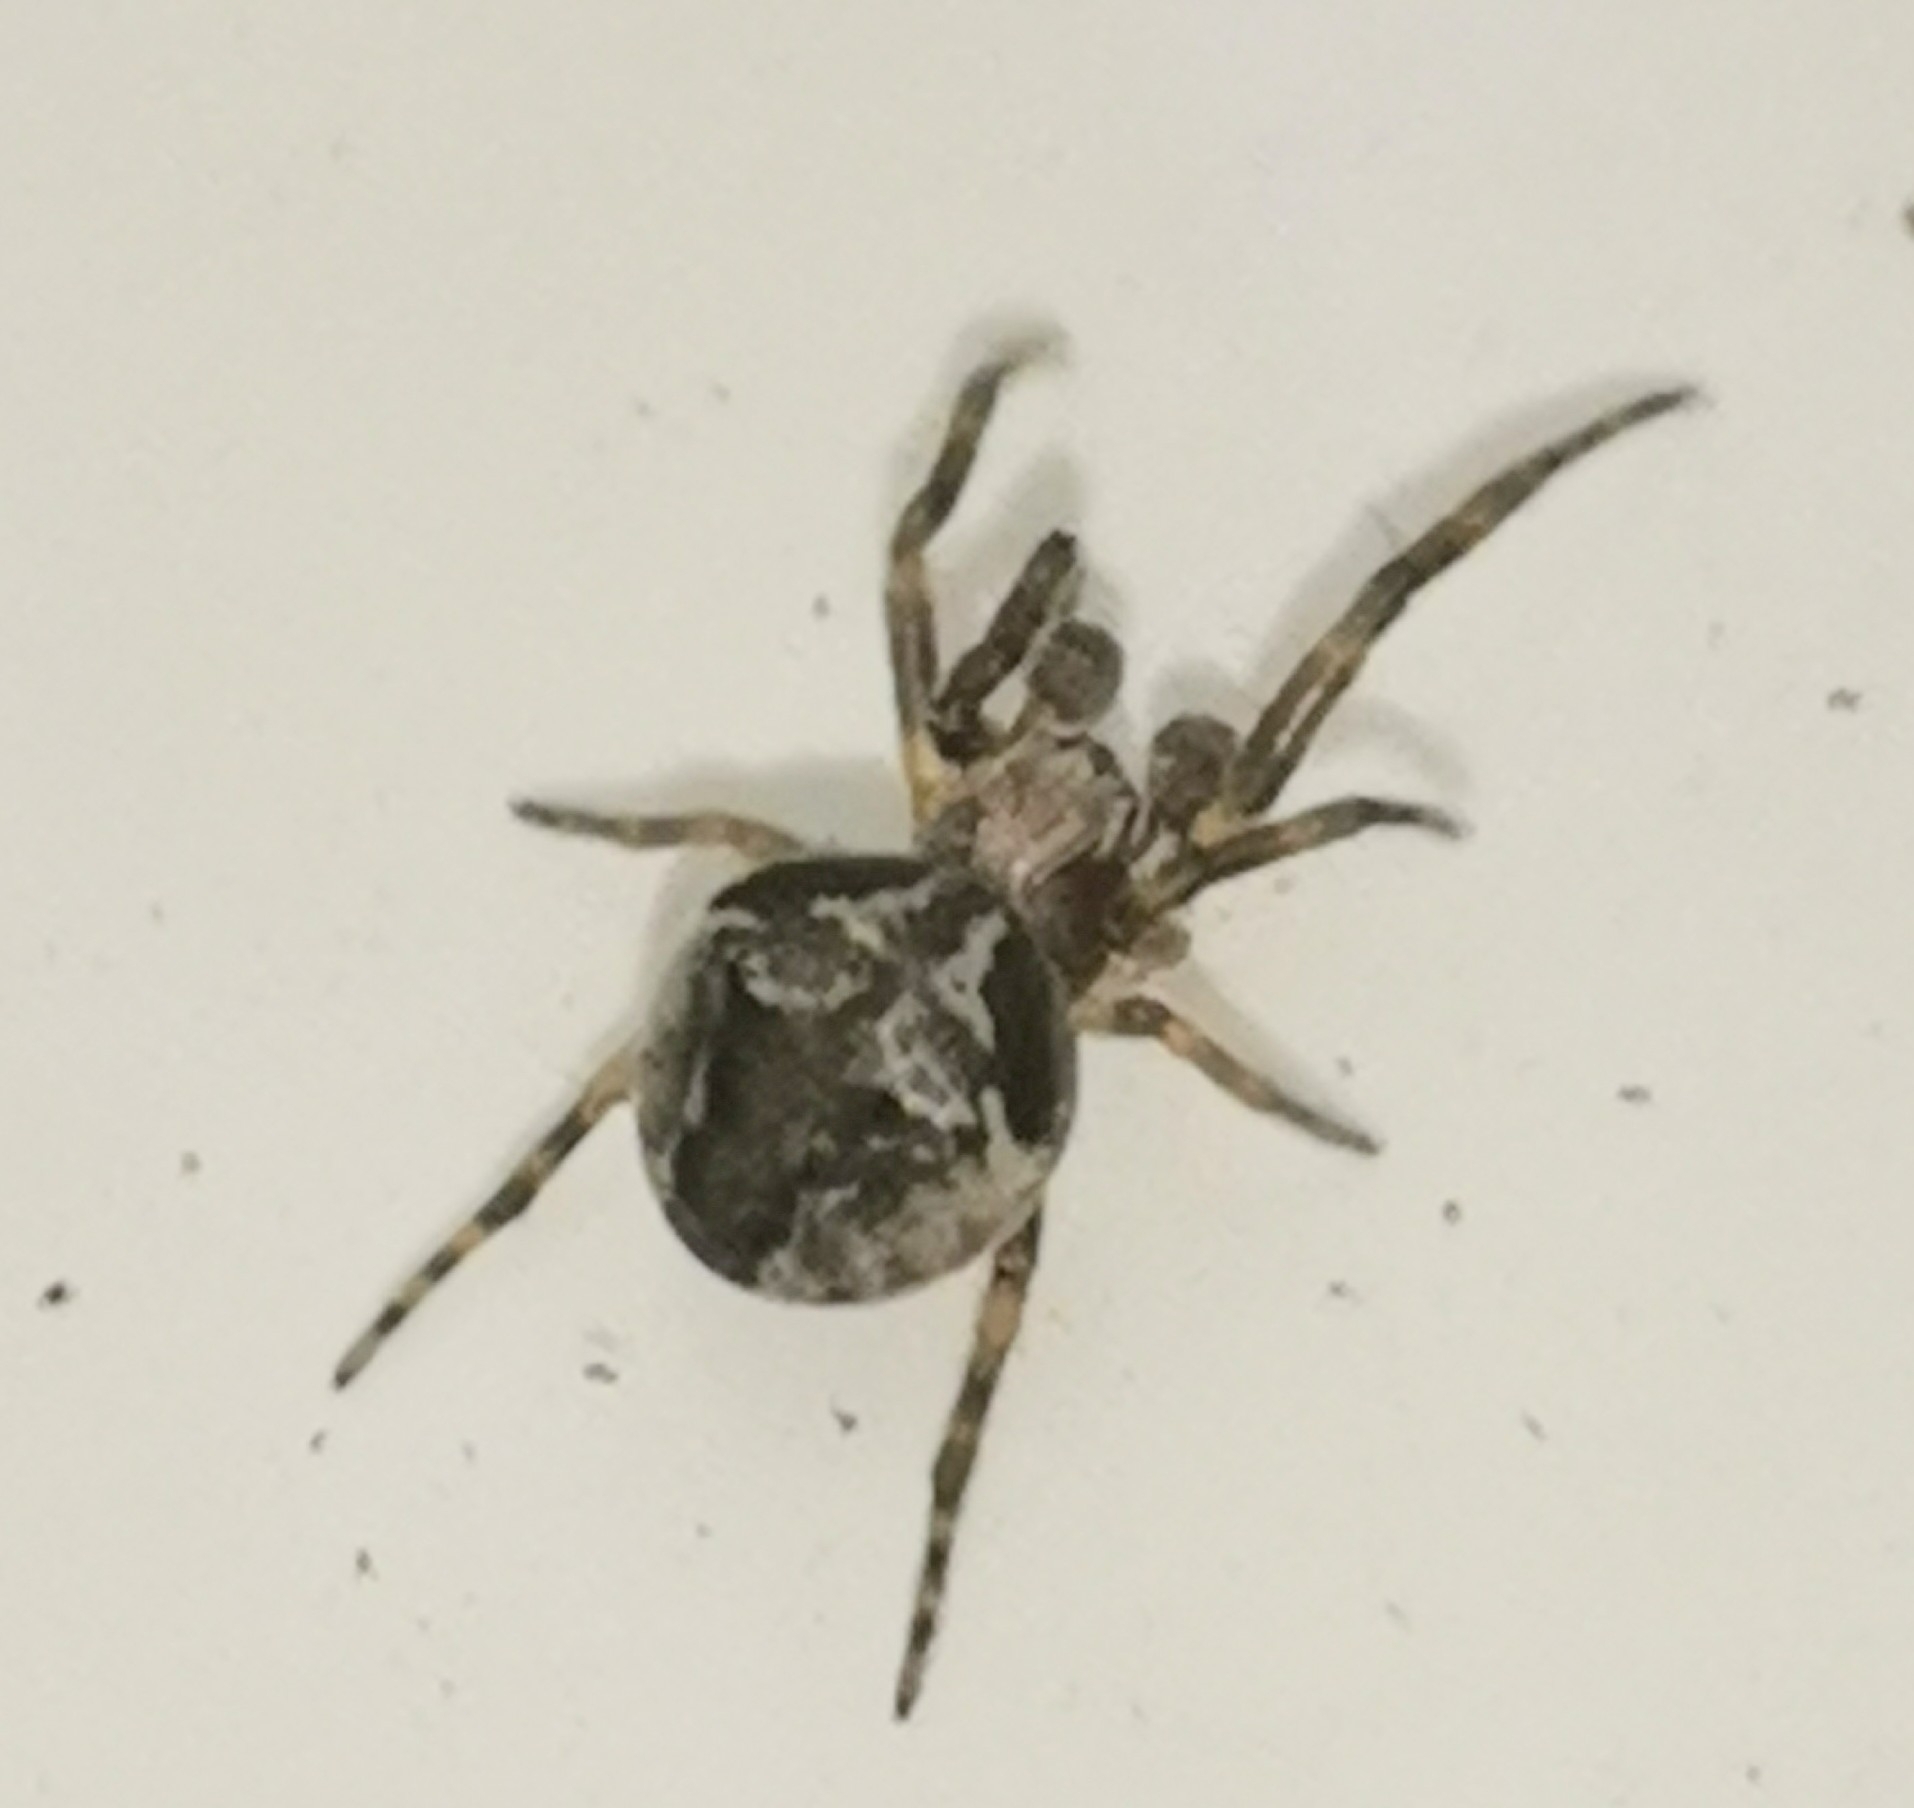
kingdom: Animalia
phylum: Arthropoda
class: Arachnida
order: Araneae
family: Araneidae
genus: Araneus
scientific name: Araneus sturmi
